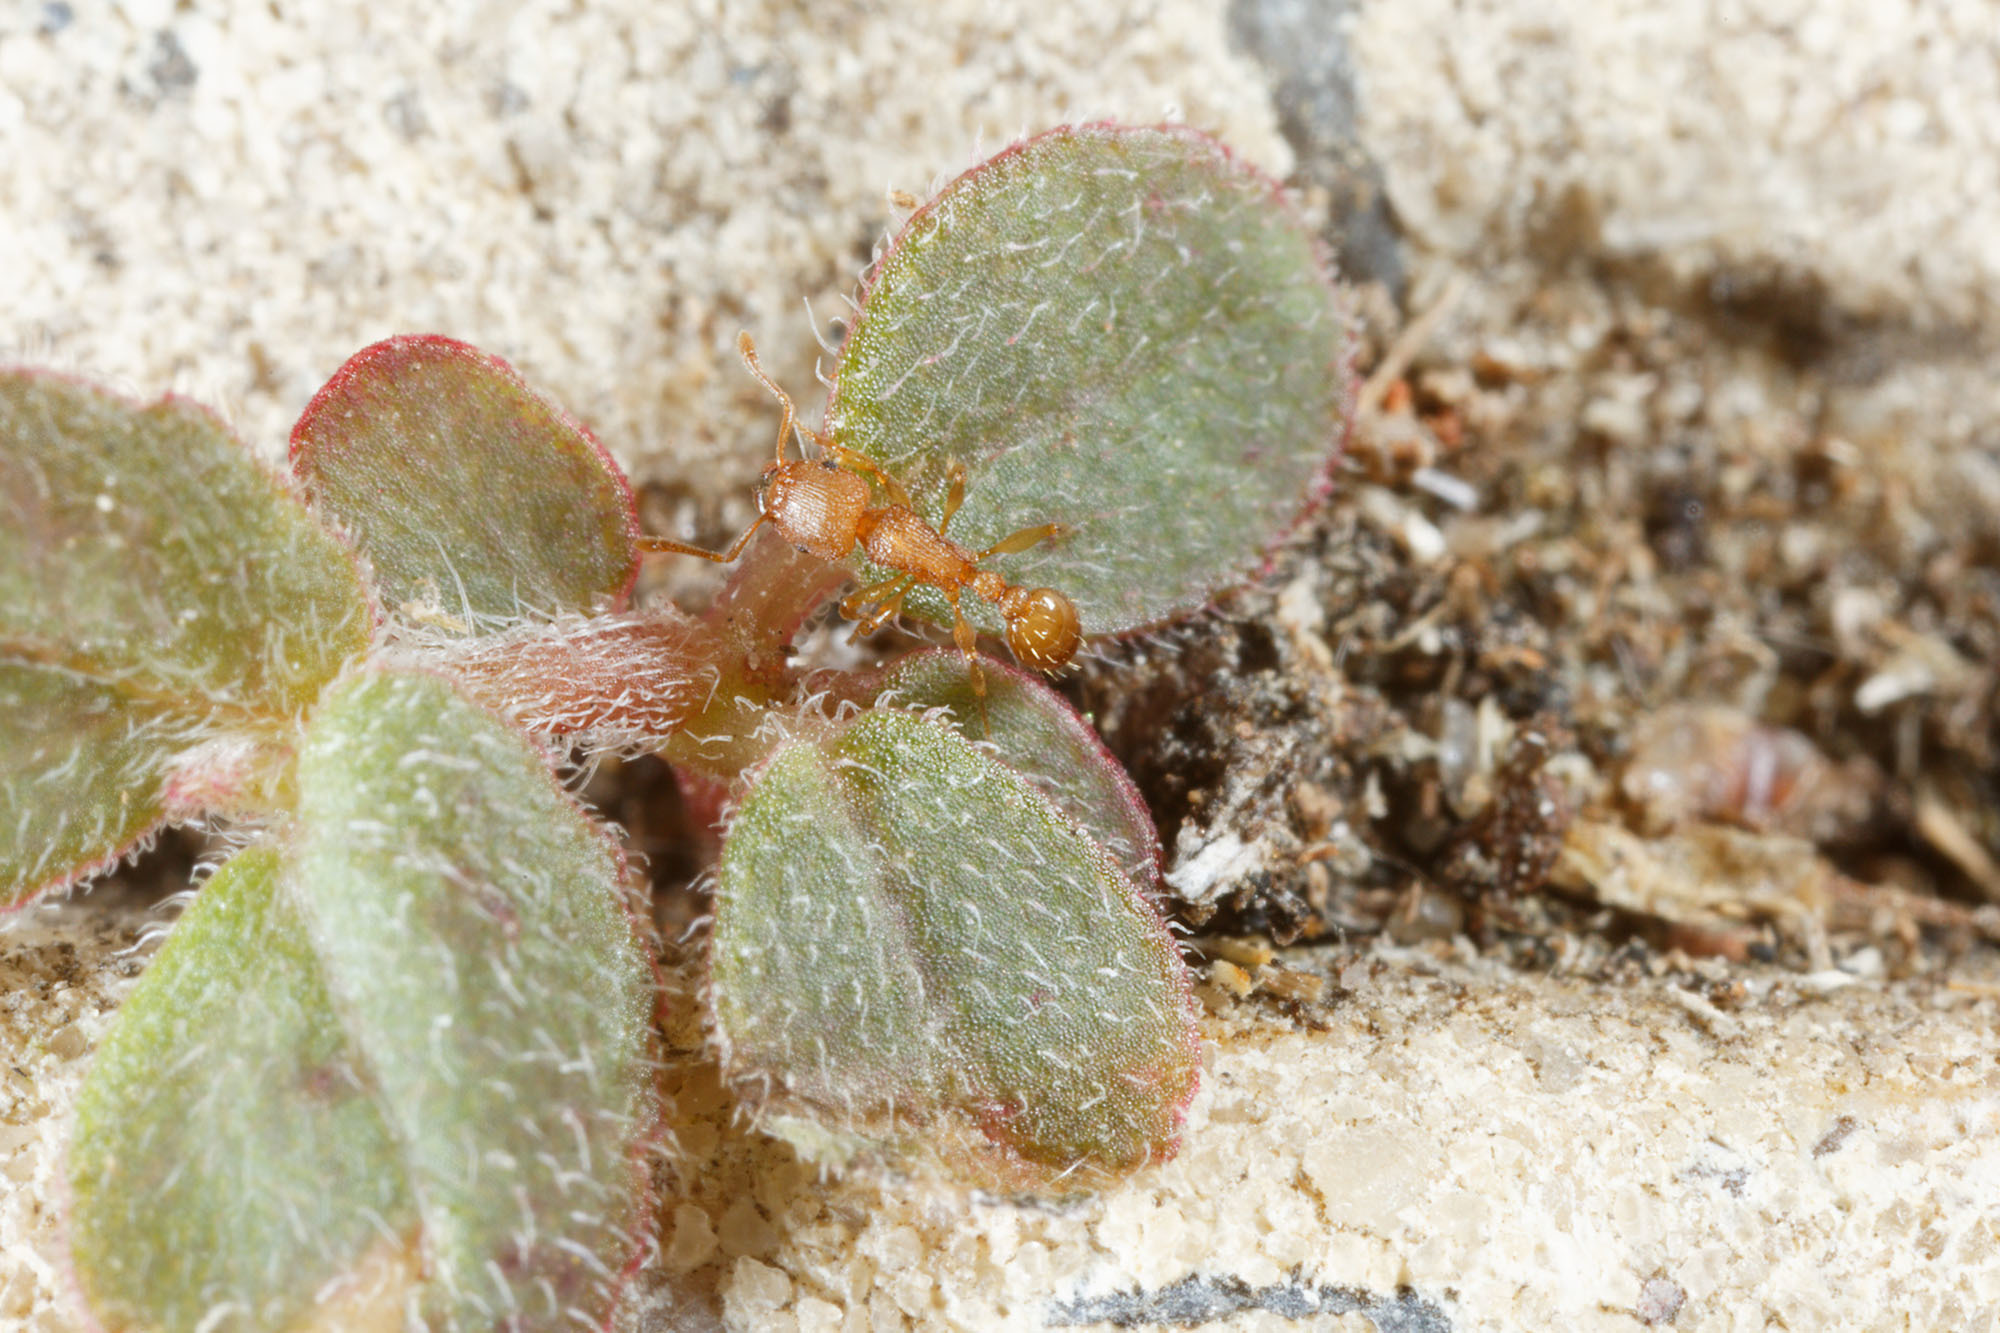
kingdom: Animalia
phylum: Arthropoda
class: Insecta
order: Hymenoptera
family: Formicidae
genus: Tetramorium
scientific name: Tetramorium simillimum
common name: Ant
